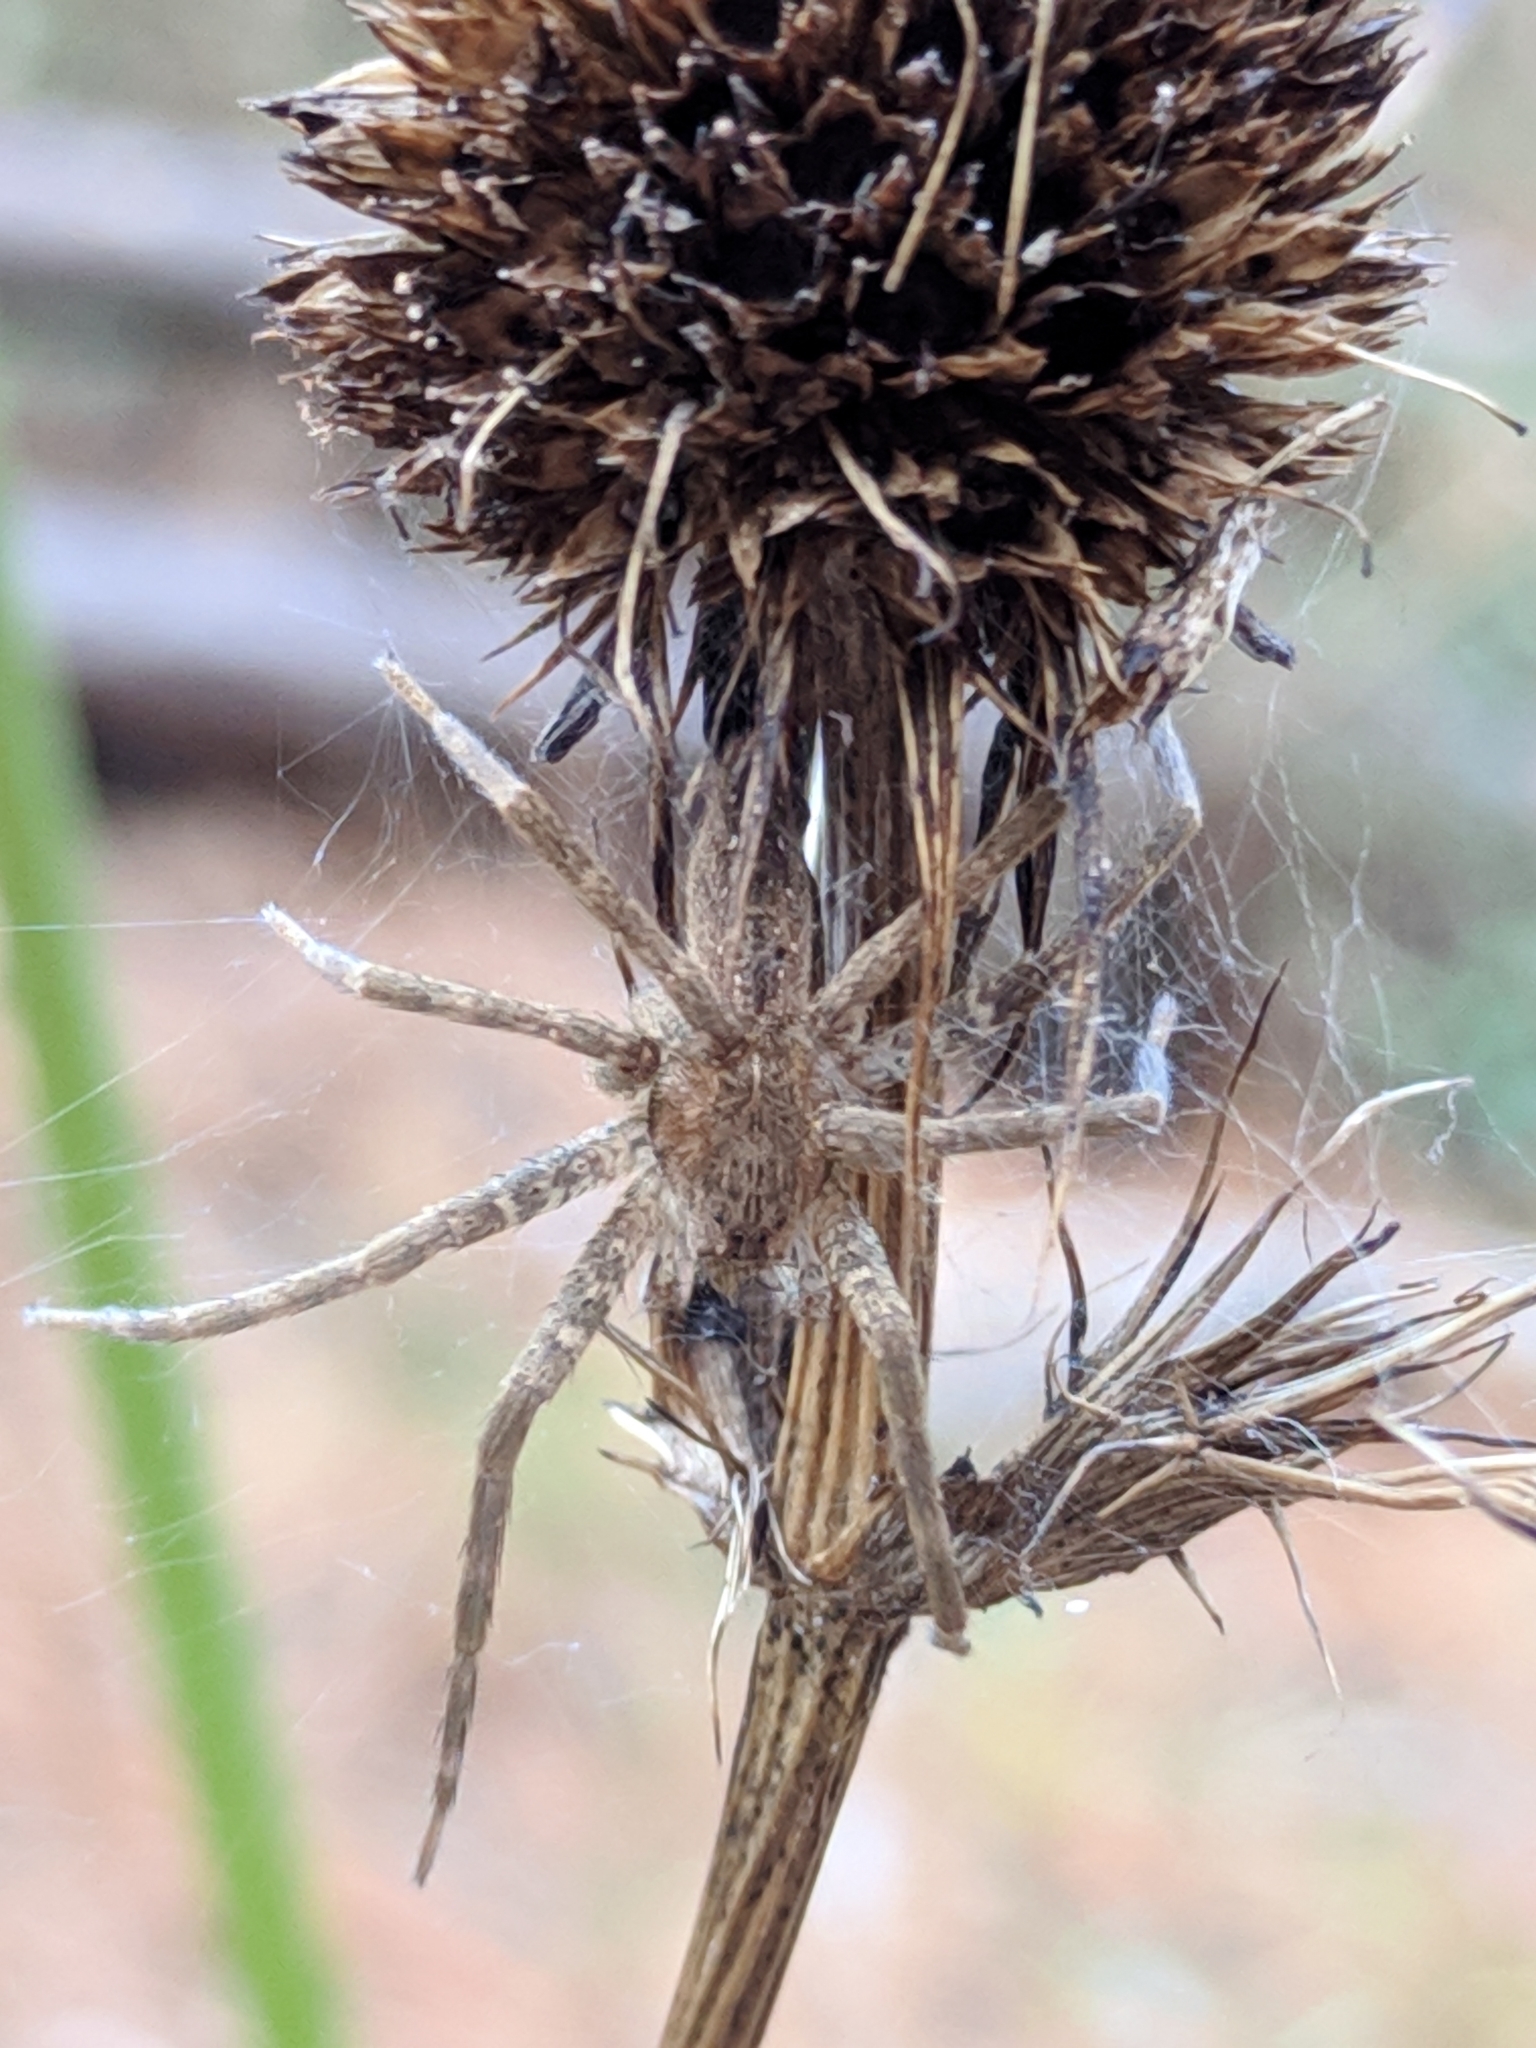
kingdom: Animalia
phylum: Arthropoda
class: Arachnida
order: Araneae
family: Pisauridae
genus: Pisaurina
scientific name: Pisaurina mira
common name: American nursery web spider
